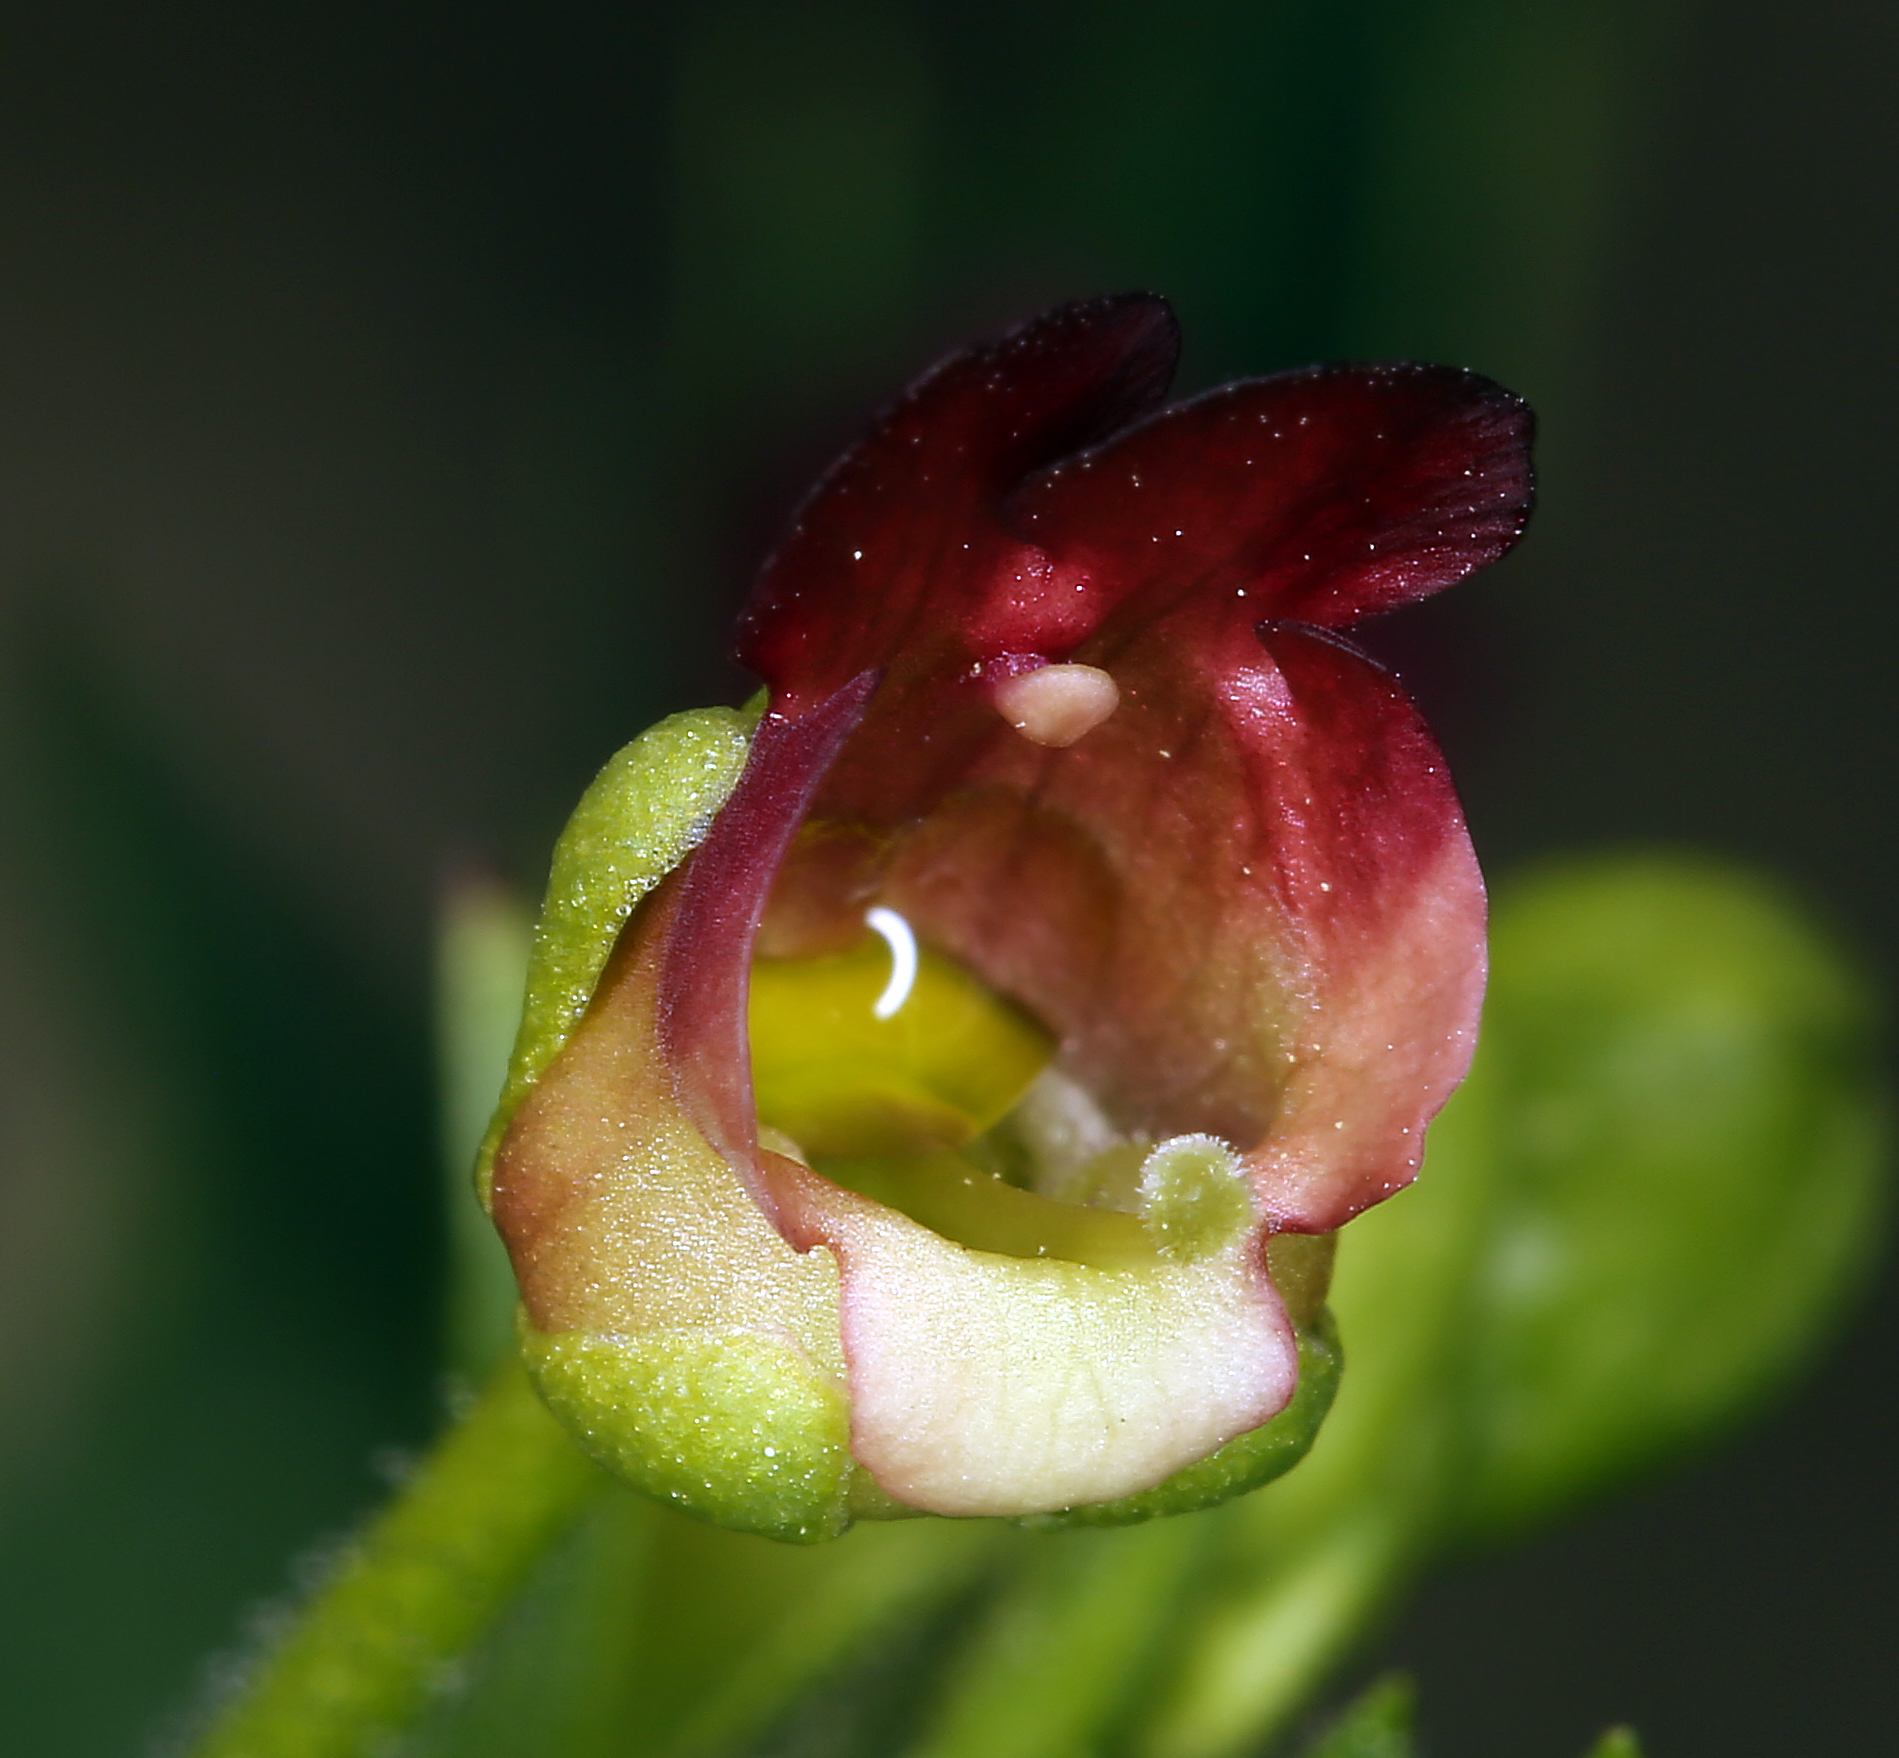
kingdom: Plantae
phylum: Tracheophyta
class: Magnoliopsida
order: Lamiales
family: Scrophulariaceae
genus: Scrophularia
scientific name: Scrophularia californica
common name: California figwort
